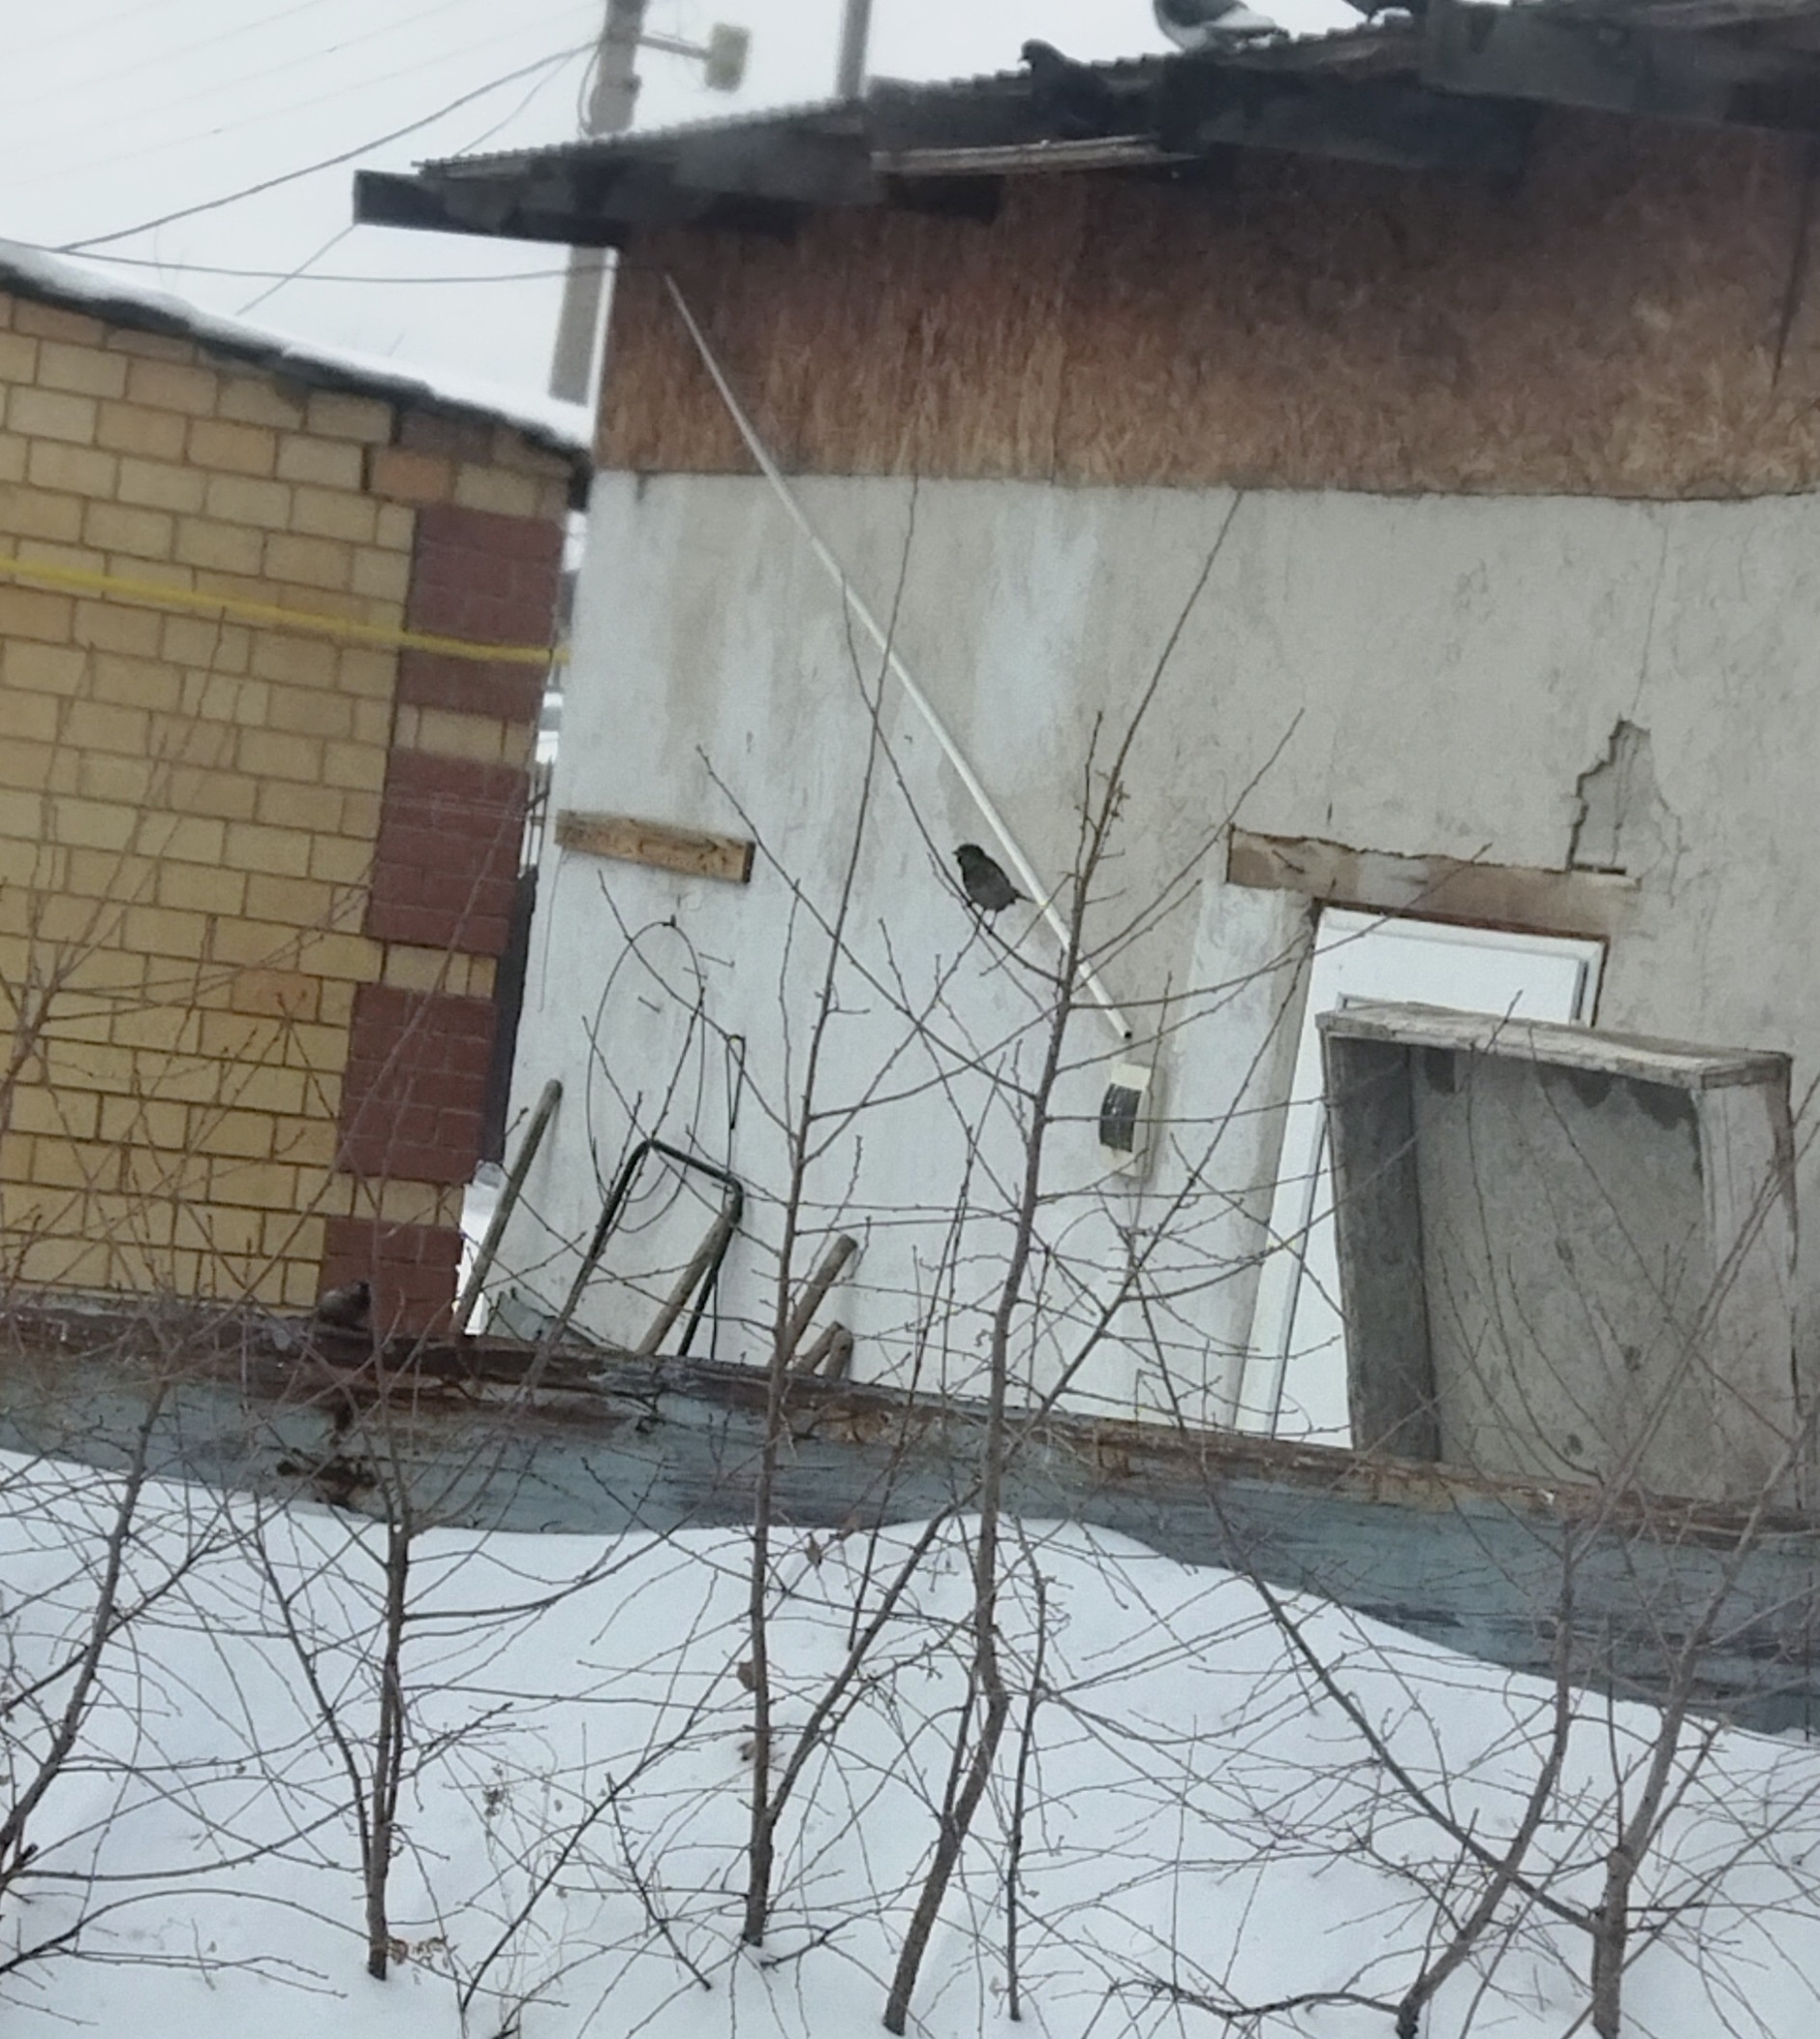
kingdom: Animalia
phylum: Chordata
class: Aves
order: Passeriformes
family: Passeridae
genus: Passer
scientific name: Passer domesticus
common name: House sparrow
